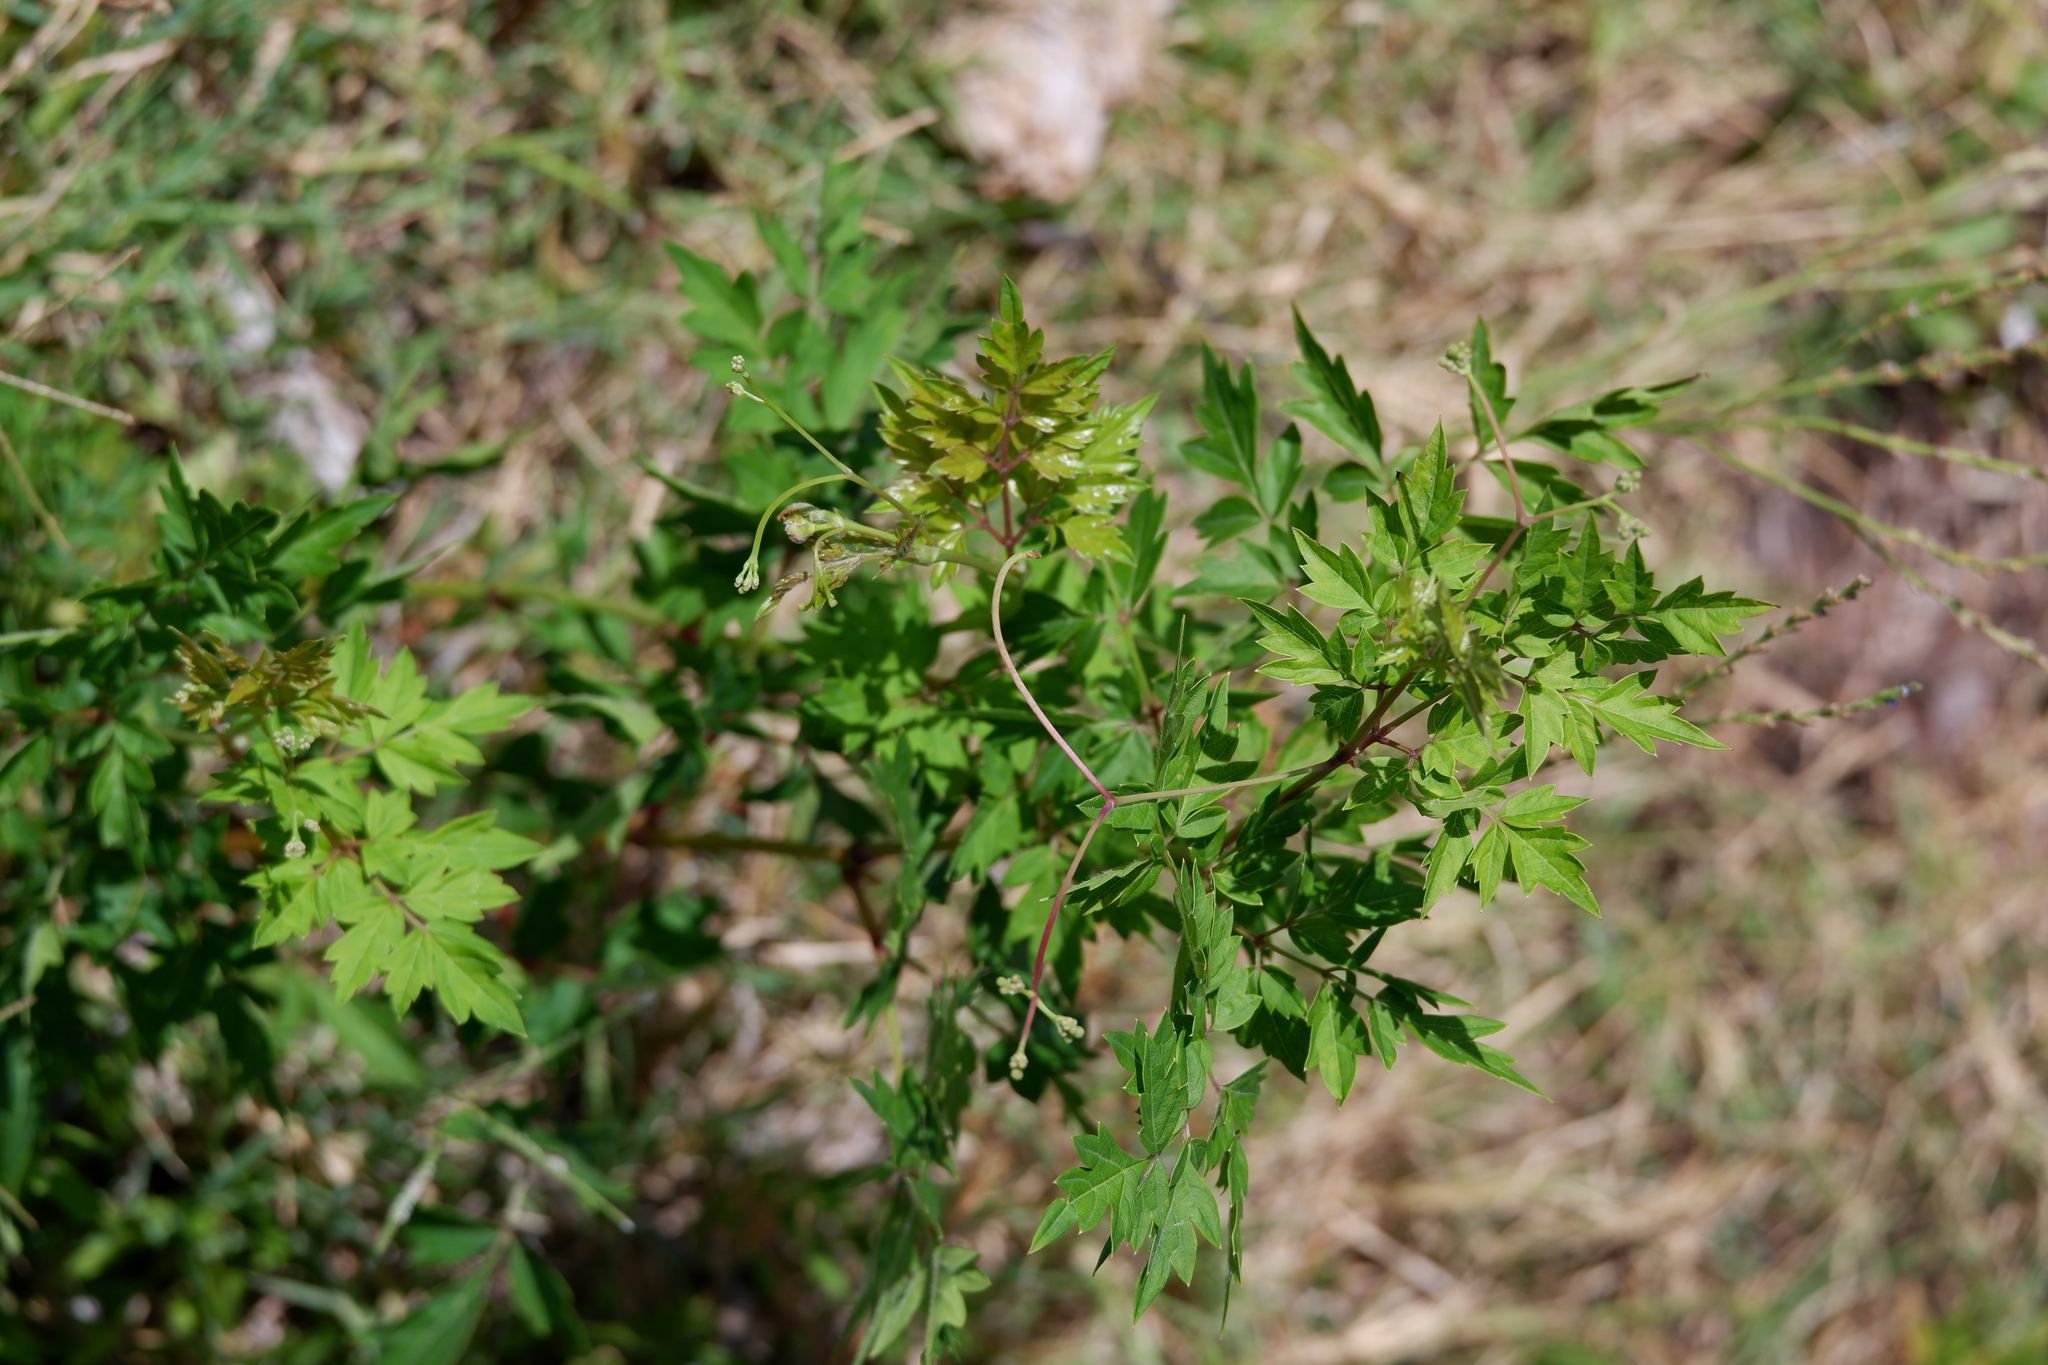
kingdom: Plantae
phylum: Tracheophyta
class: Magnoliopsida
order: Vitales
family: Vitaceae
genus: Nekemias
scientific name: Nekemias arborea
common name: Peppervine
